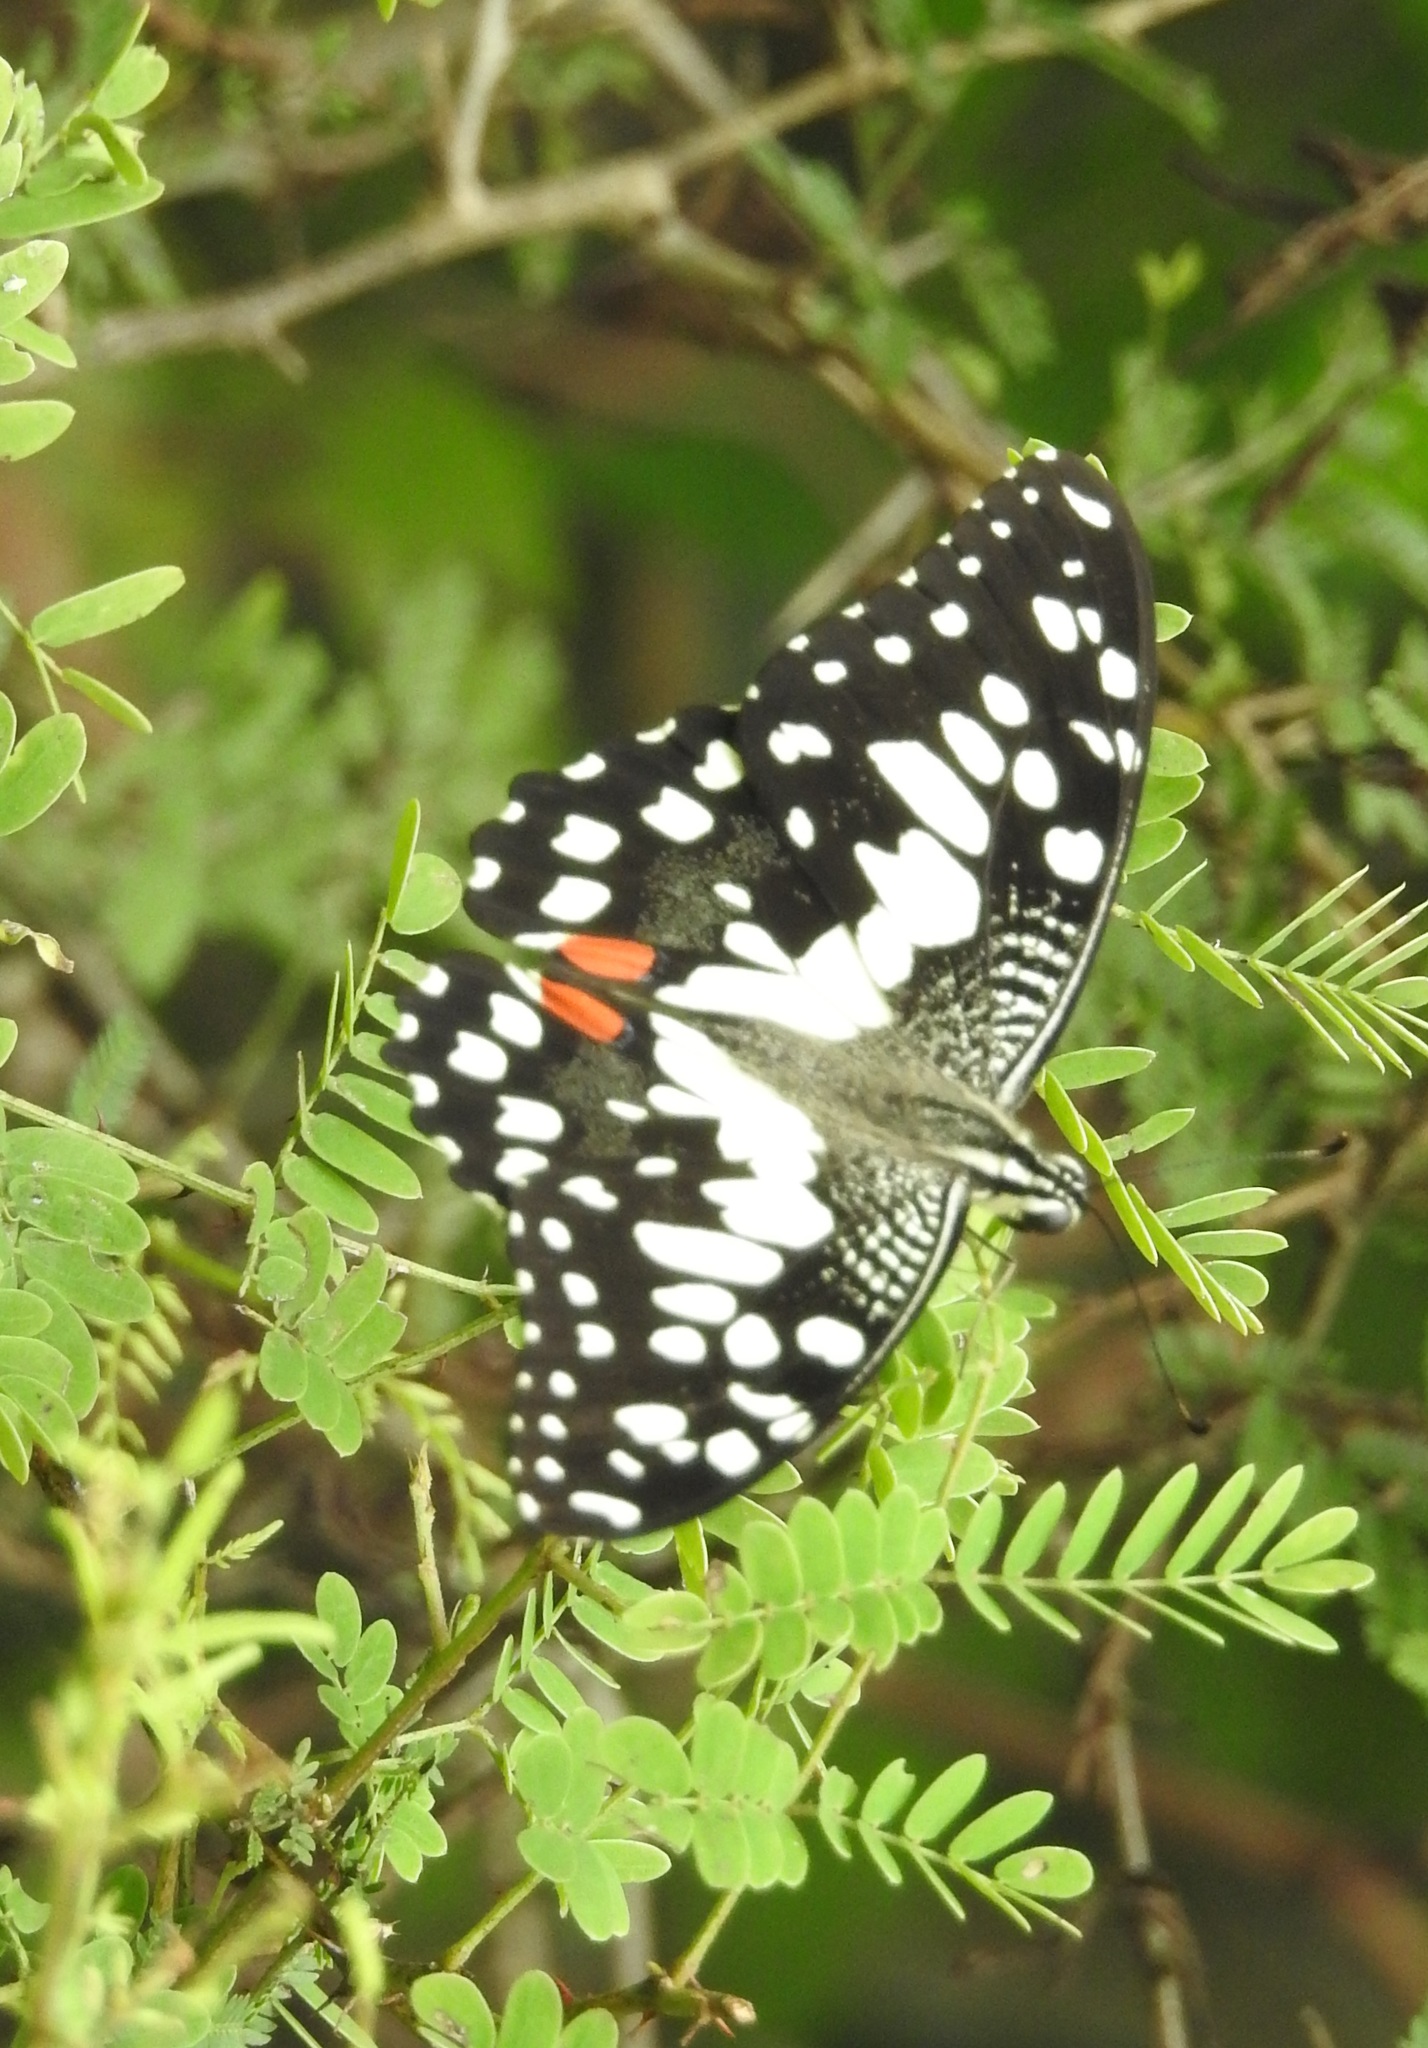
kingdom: Animalia
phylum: Arthropoda
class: Insecta
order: Lepidoptera
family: Papilionidae
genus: Papilio
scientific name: Papilio demoleus
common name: Lime butterfly
